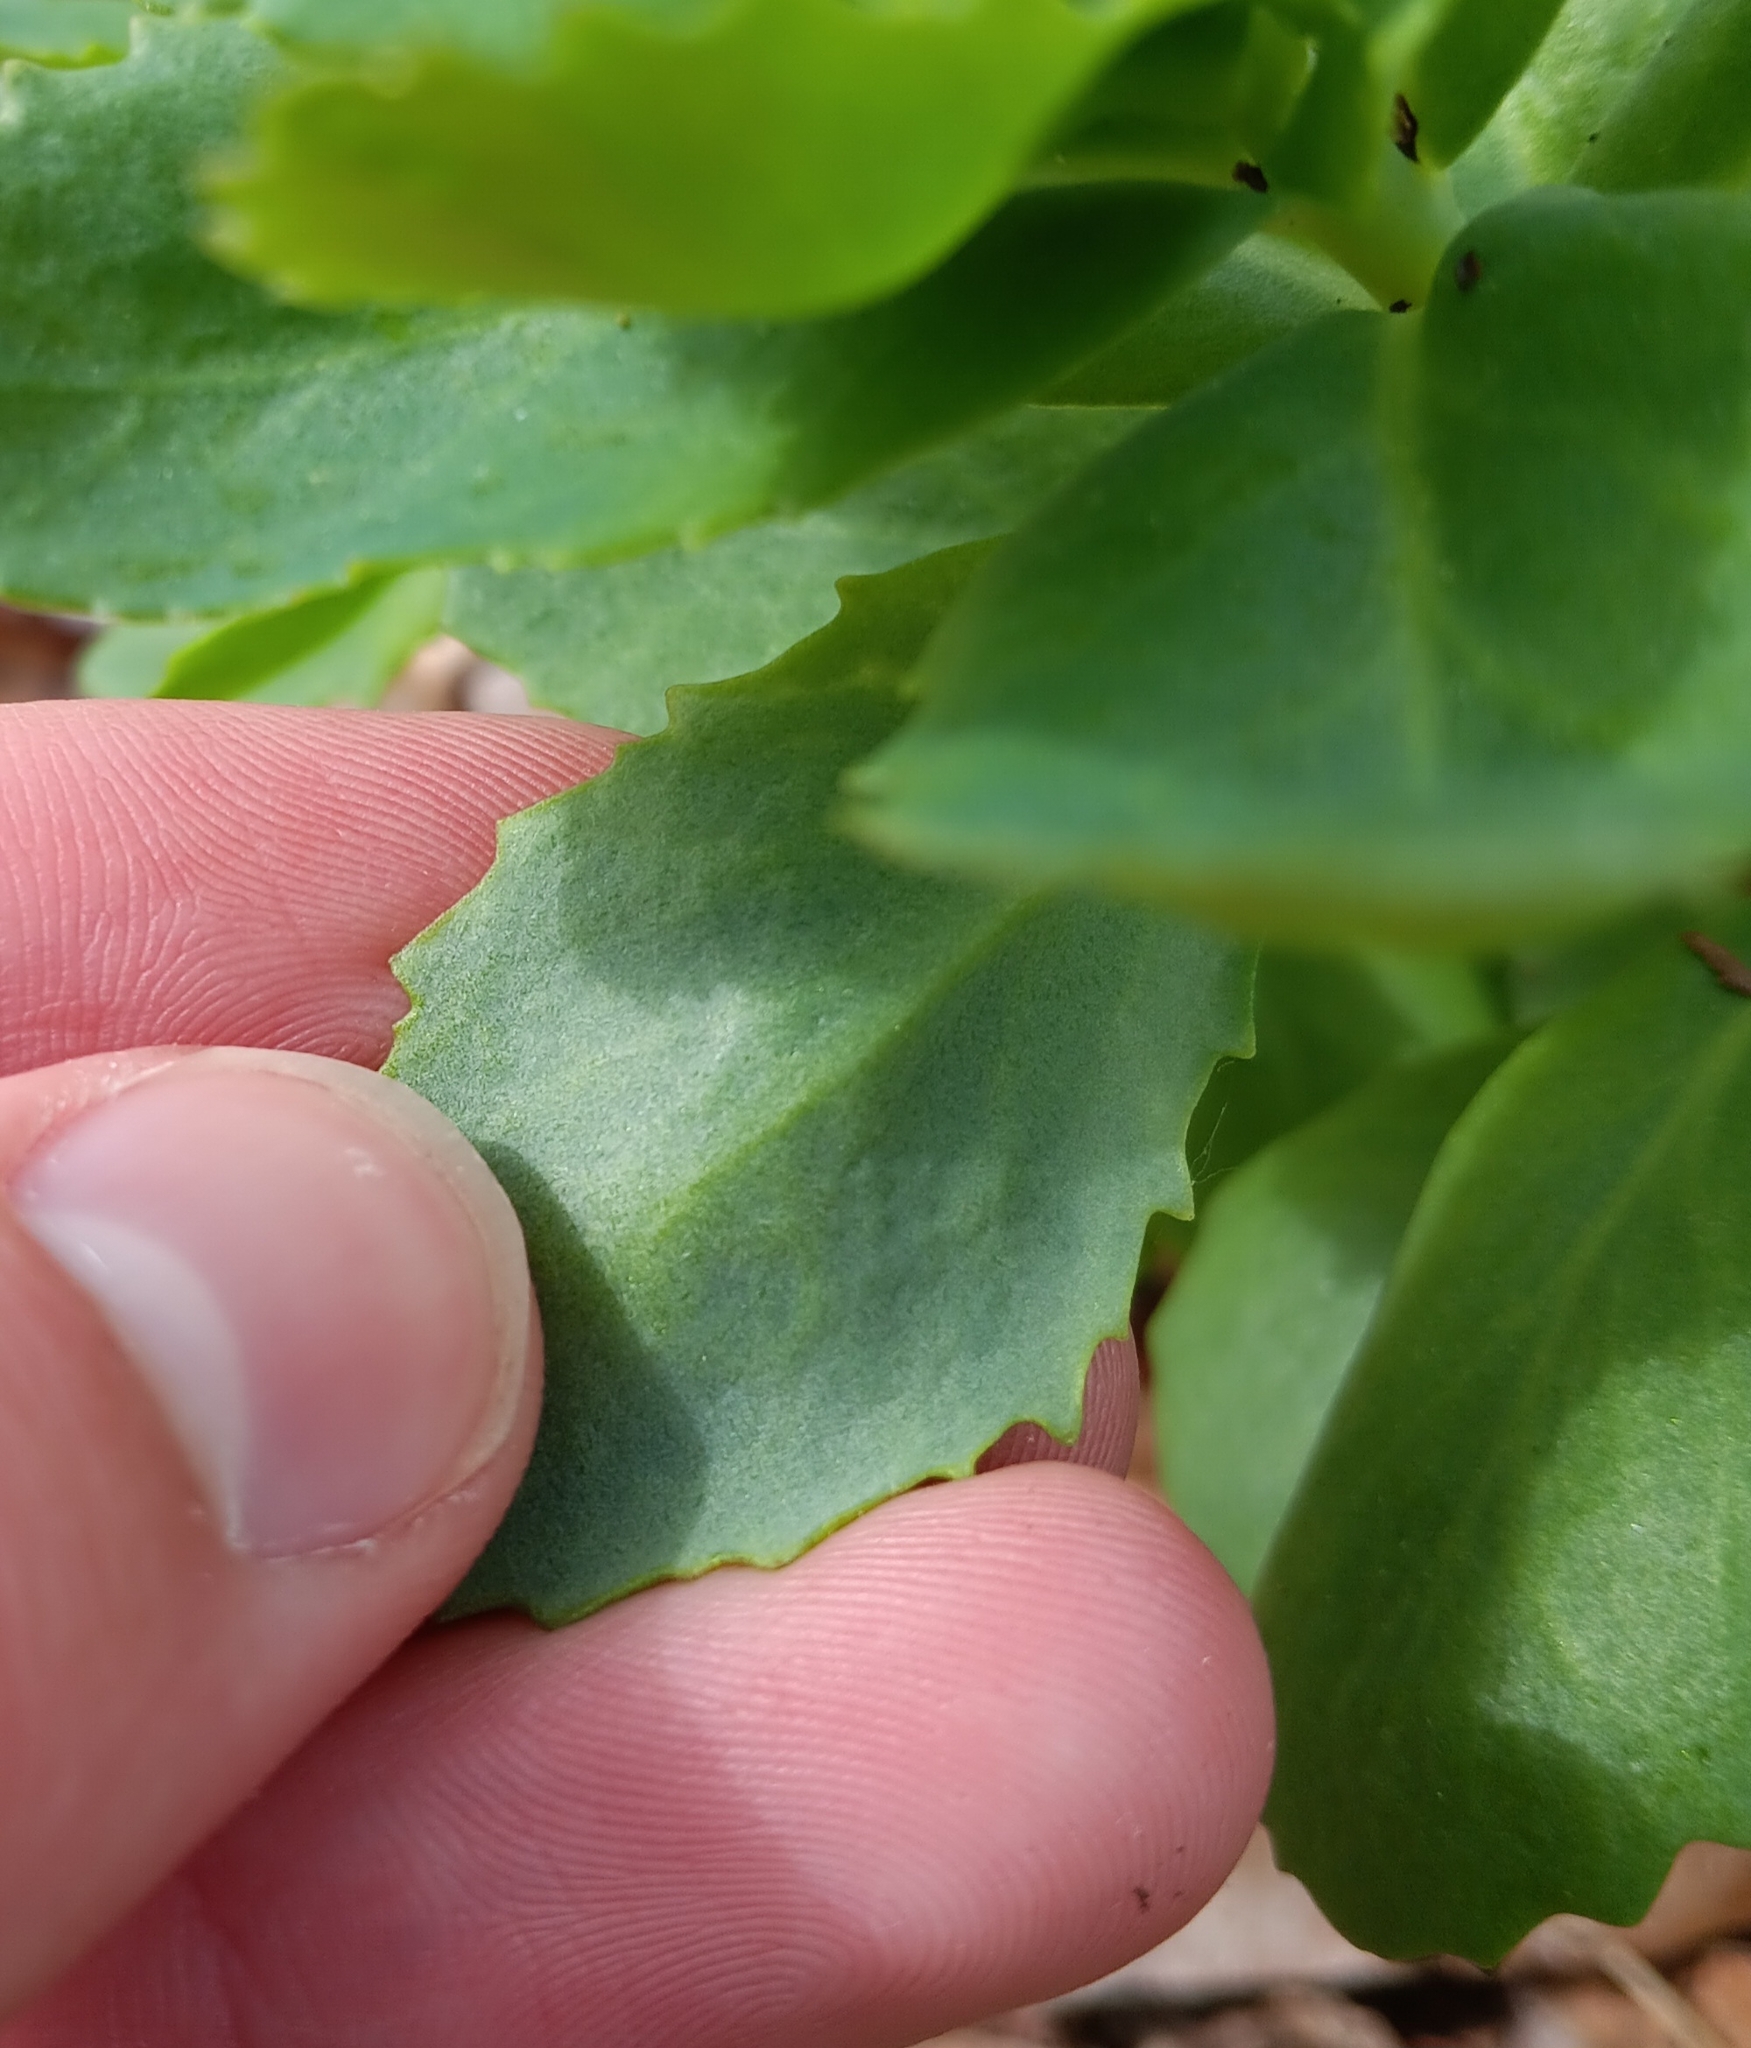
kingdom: Plantae
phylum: Tracheophyta
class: Magnoliopsida
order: Saxifragales
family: Crassulaceae
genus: Hylotelephium
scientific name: Hylotelephium telephium
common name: Live-forever
